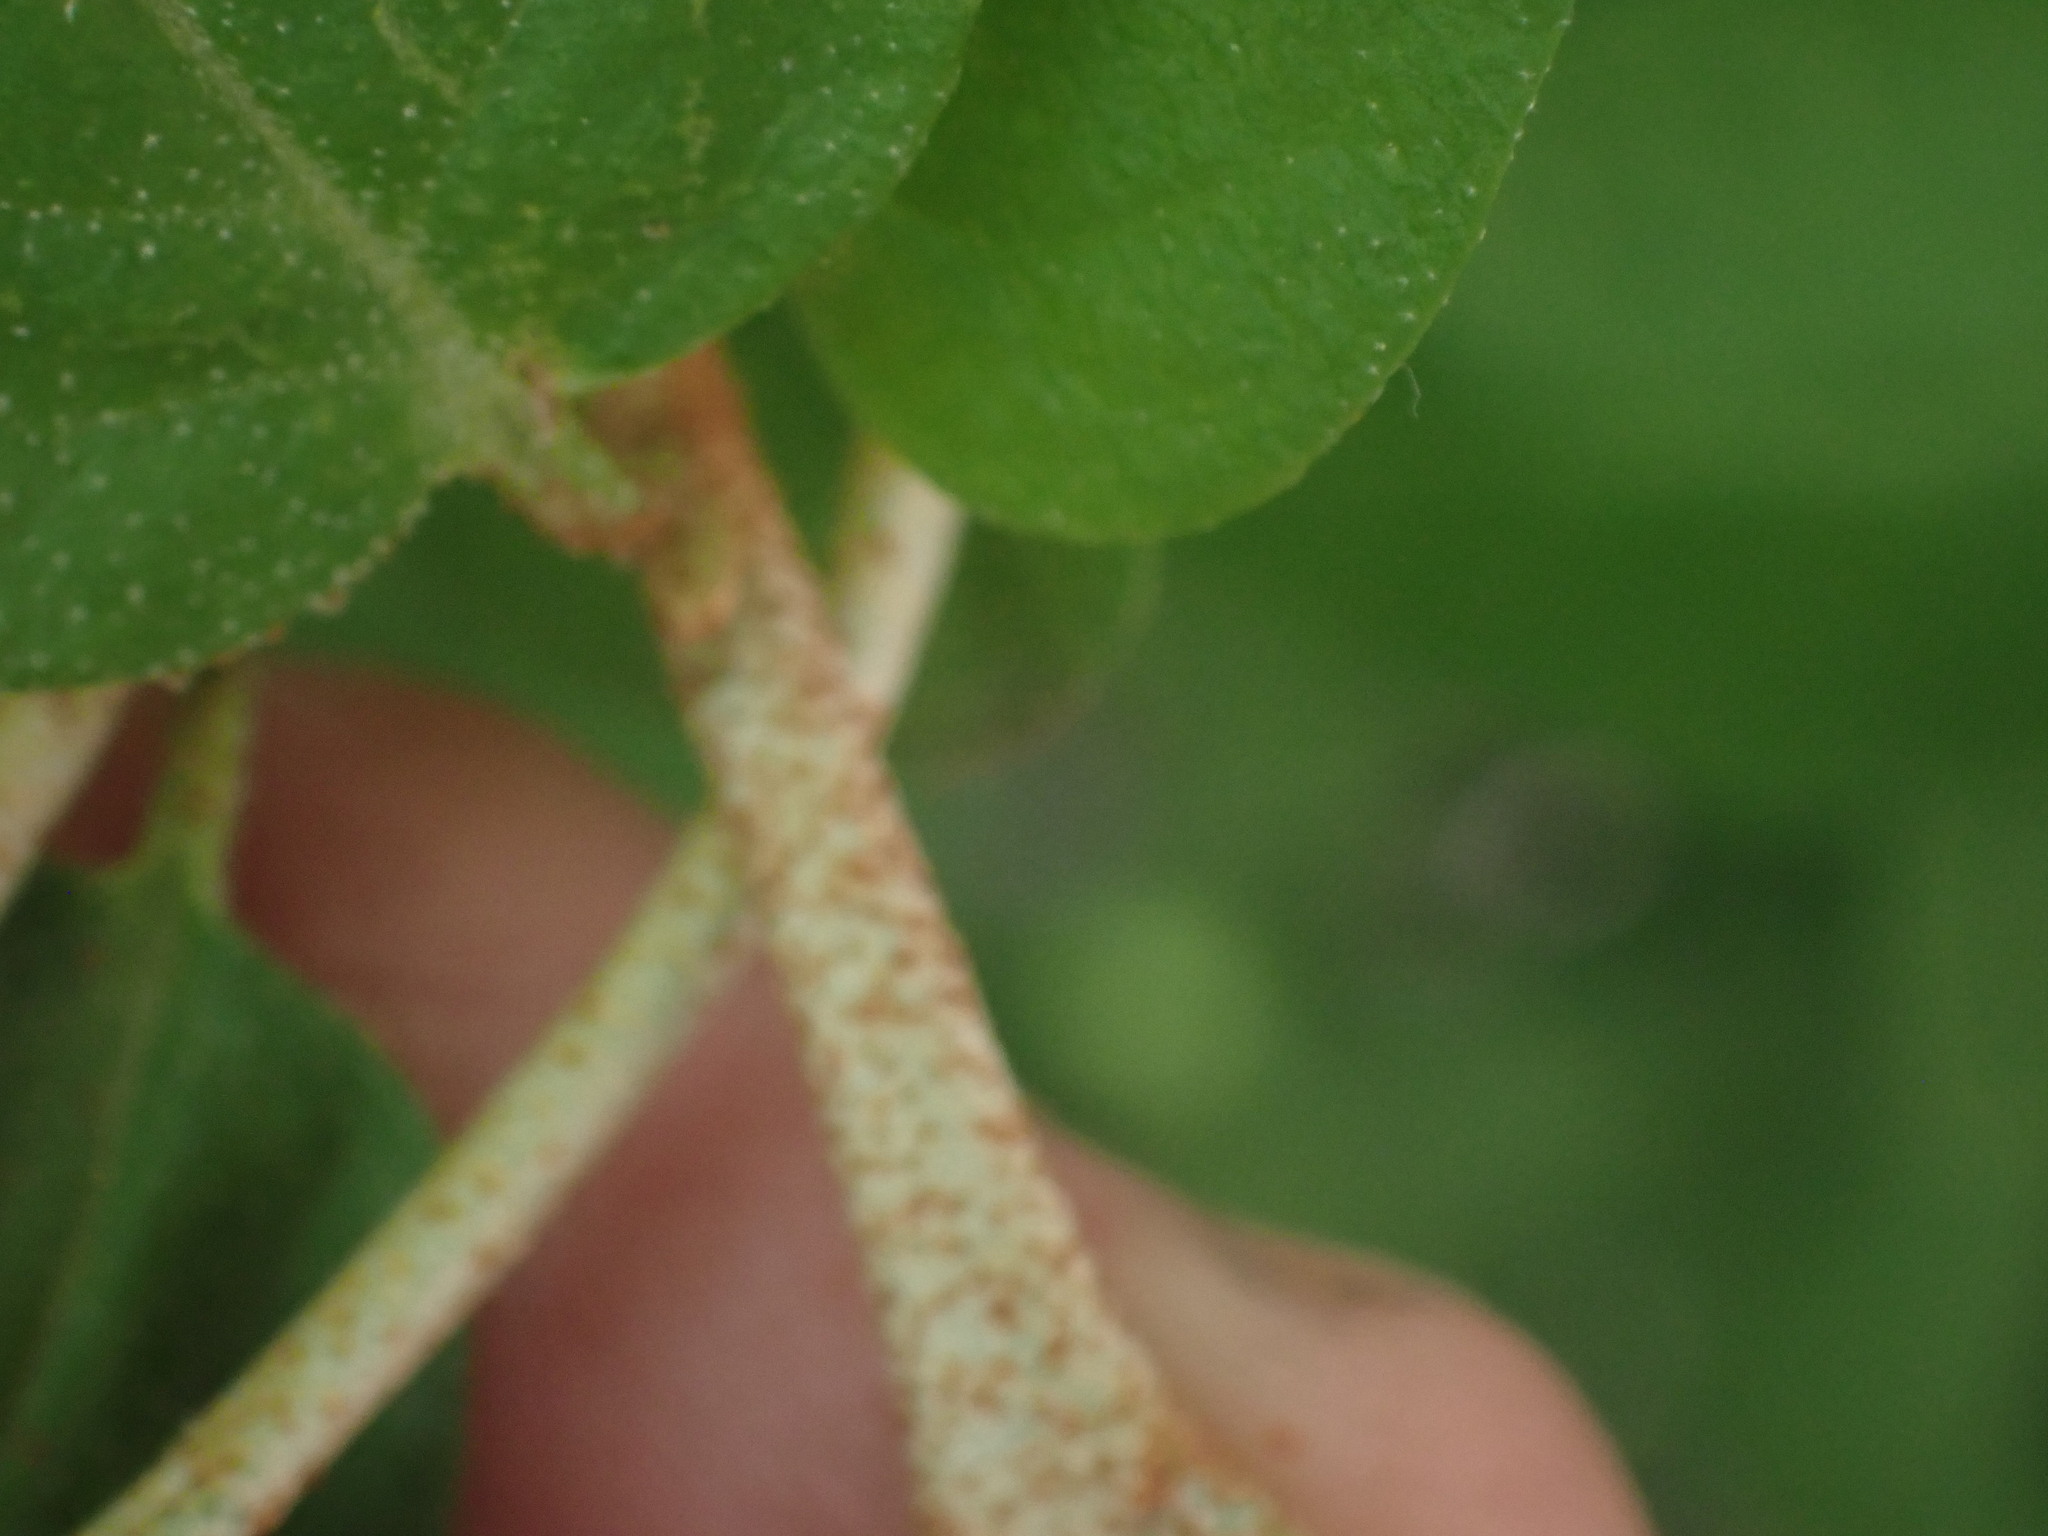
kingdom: Plantae
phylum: Tracheophyta
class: Magnoliopsida
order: Rosales
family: Elaeagnaceae
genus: Shepherdia
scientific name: Shepherdia canadensis
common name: Soapberry
